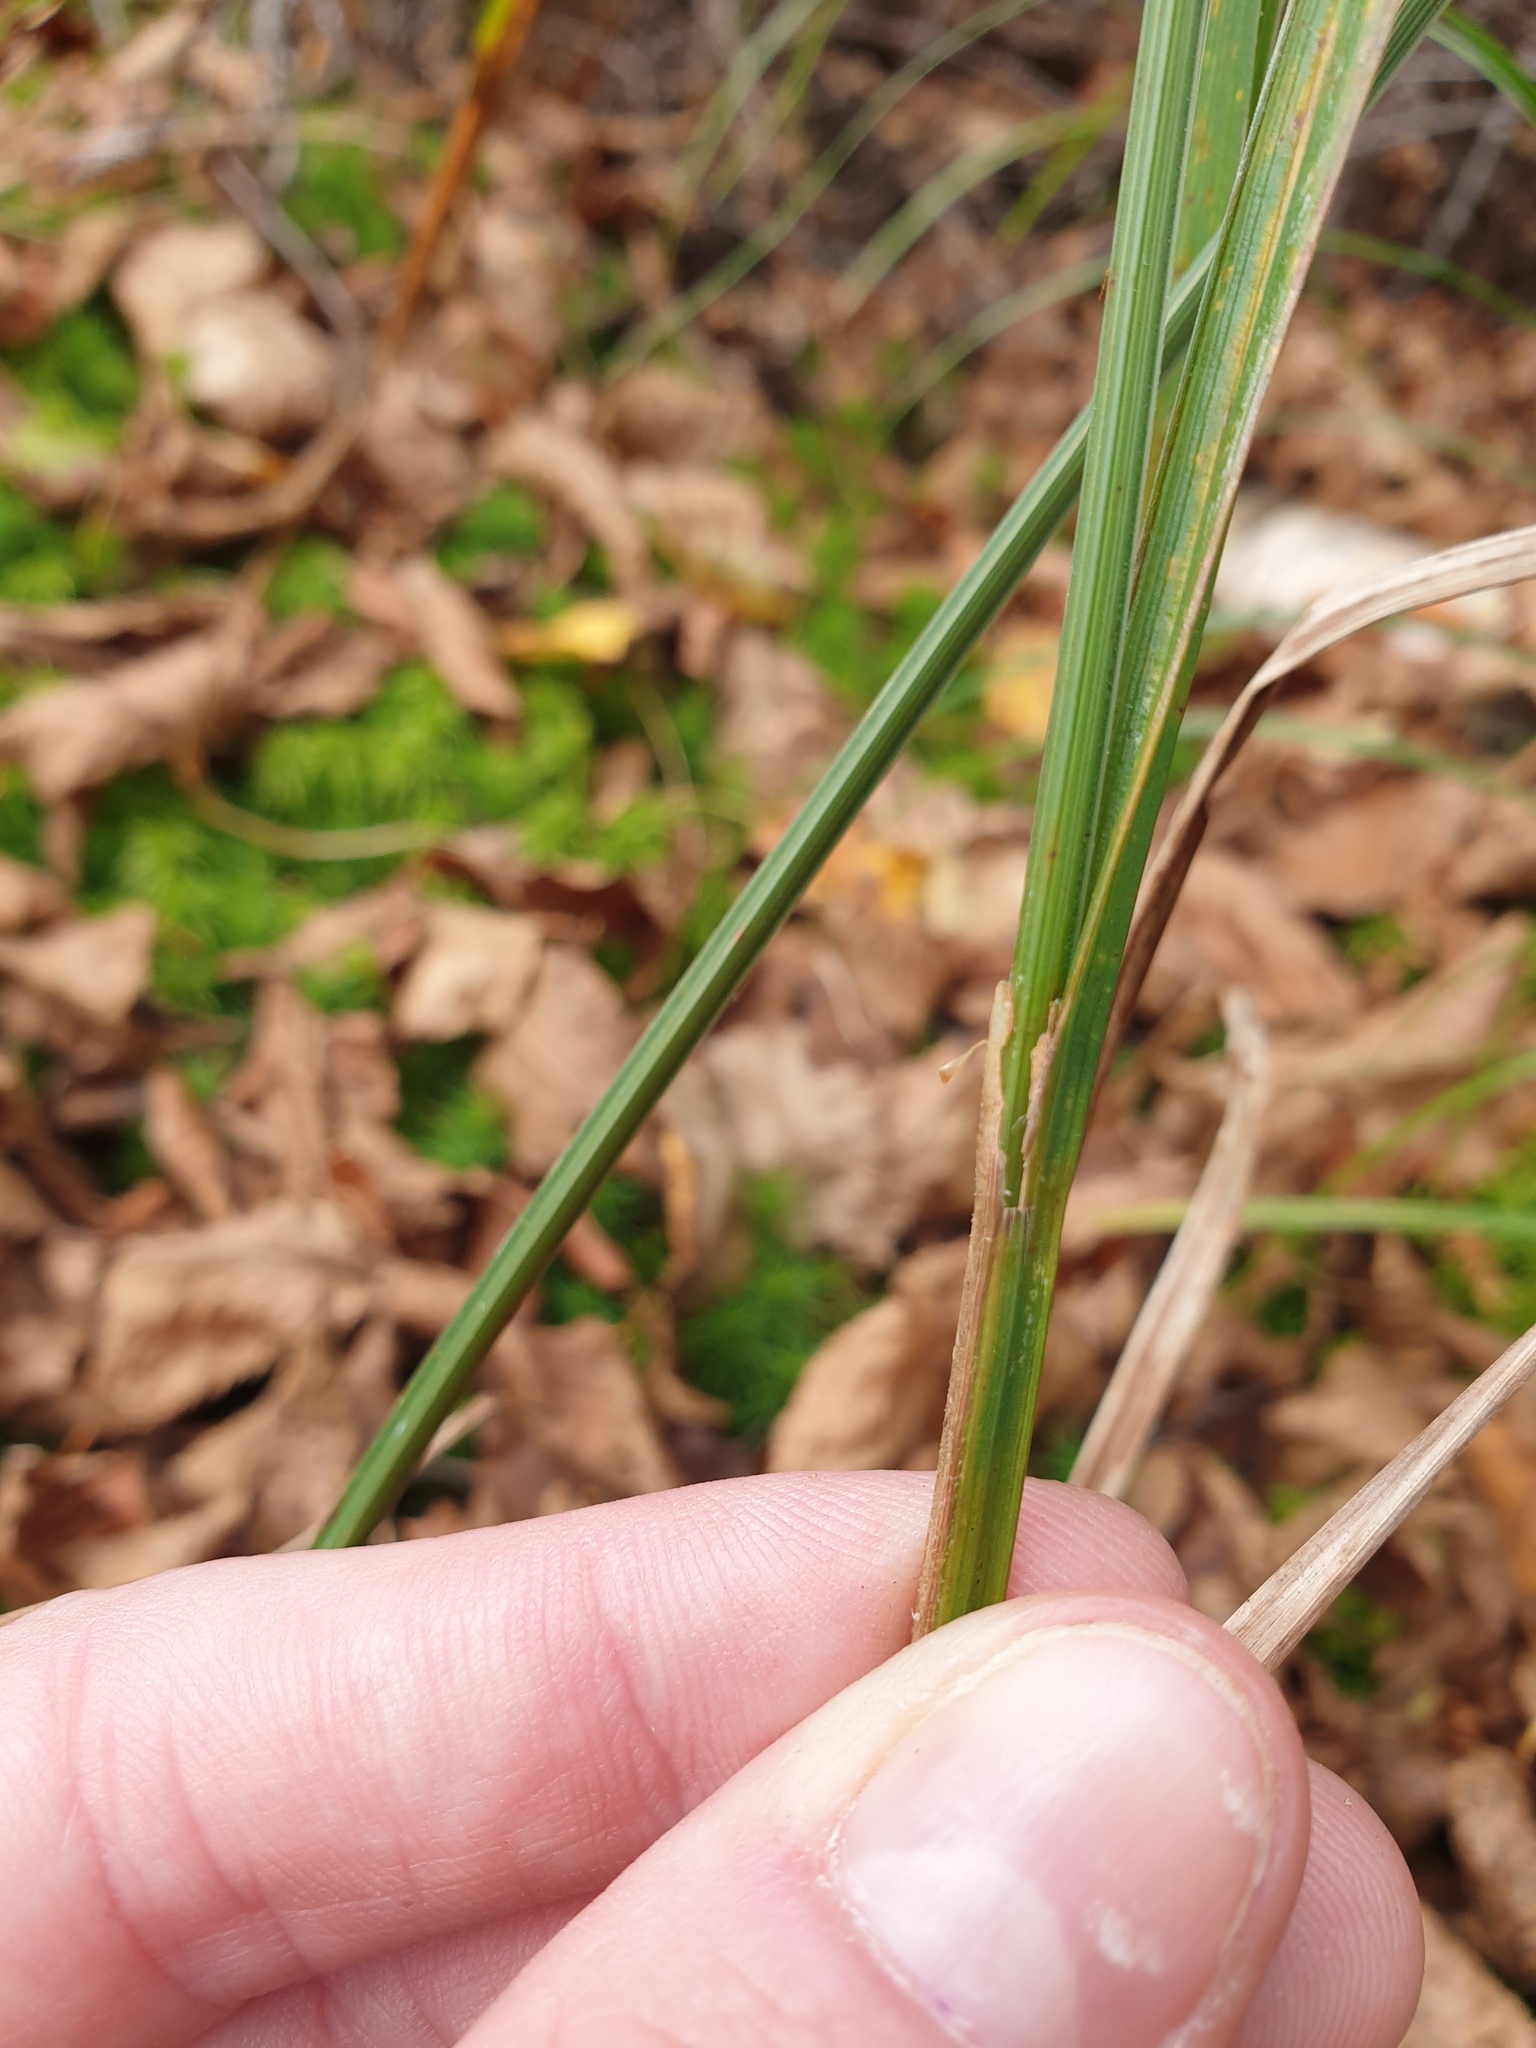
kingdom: Plantae
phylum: Tracheophyta
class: Liliopsida
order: Poales
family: Cyperaceae
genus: Carex
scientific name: Carex gynandra
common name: Nodding sedge
